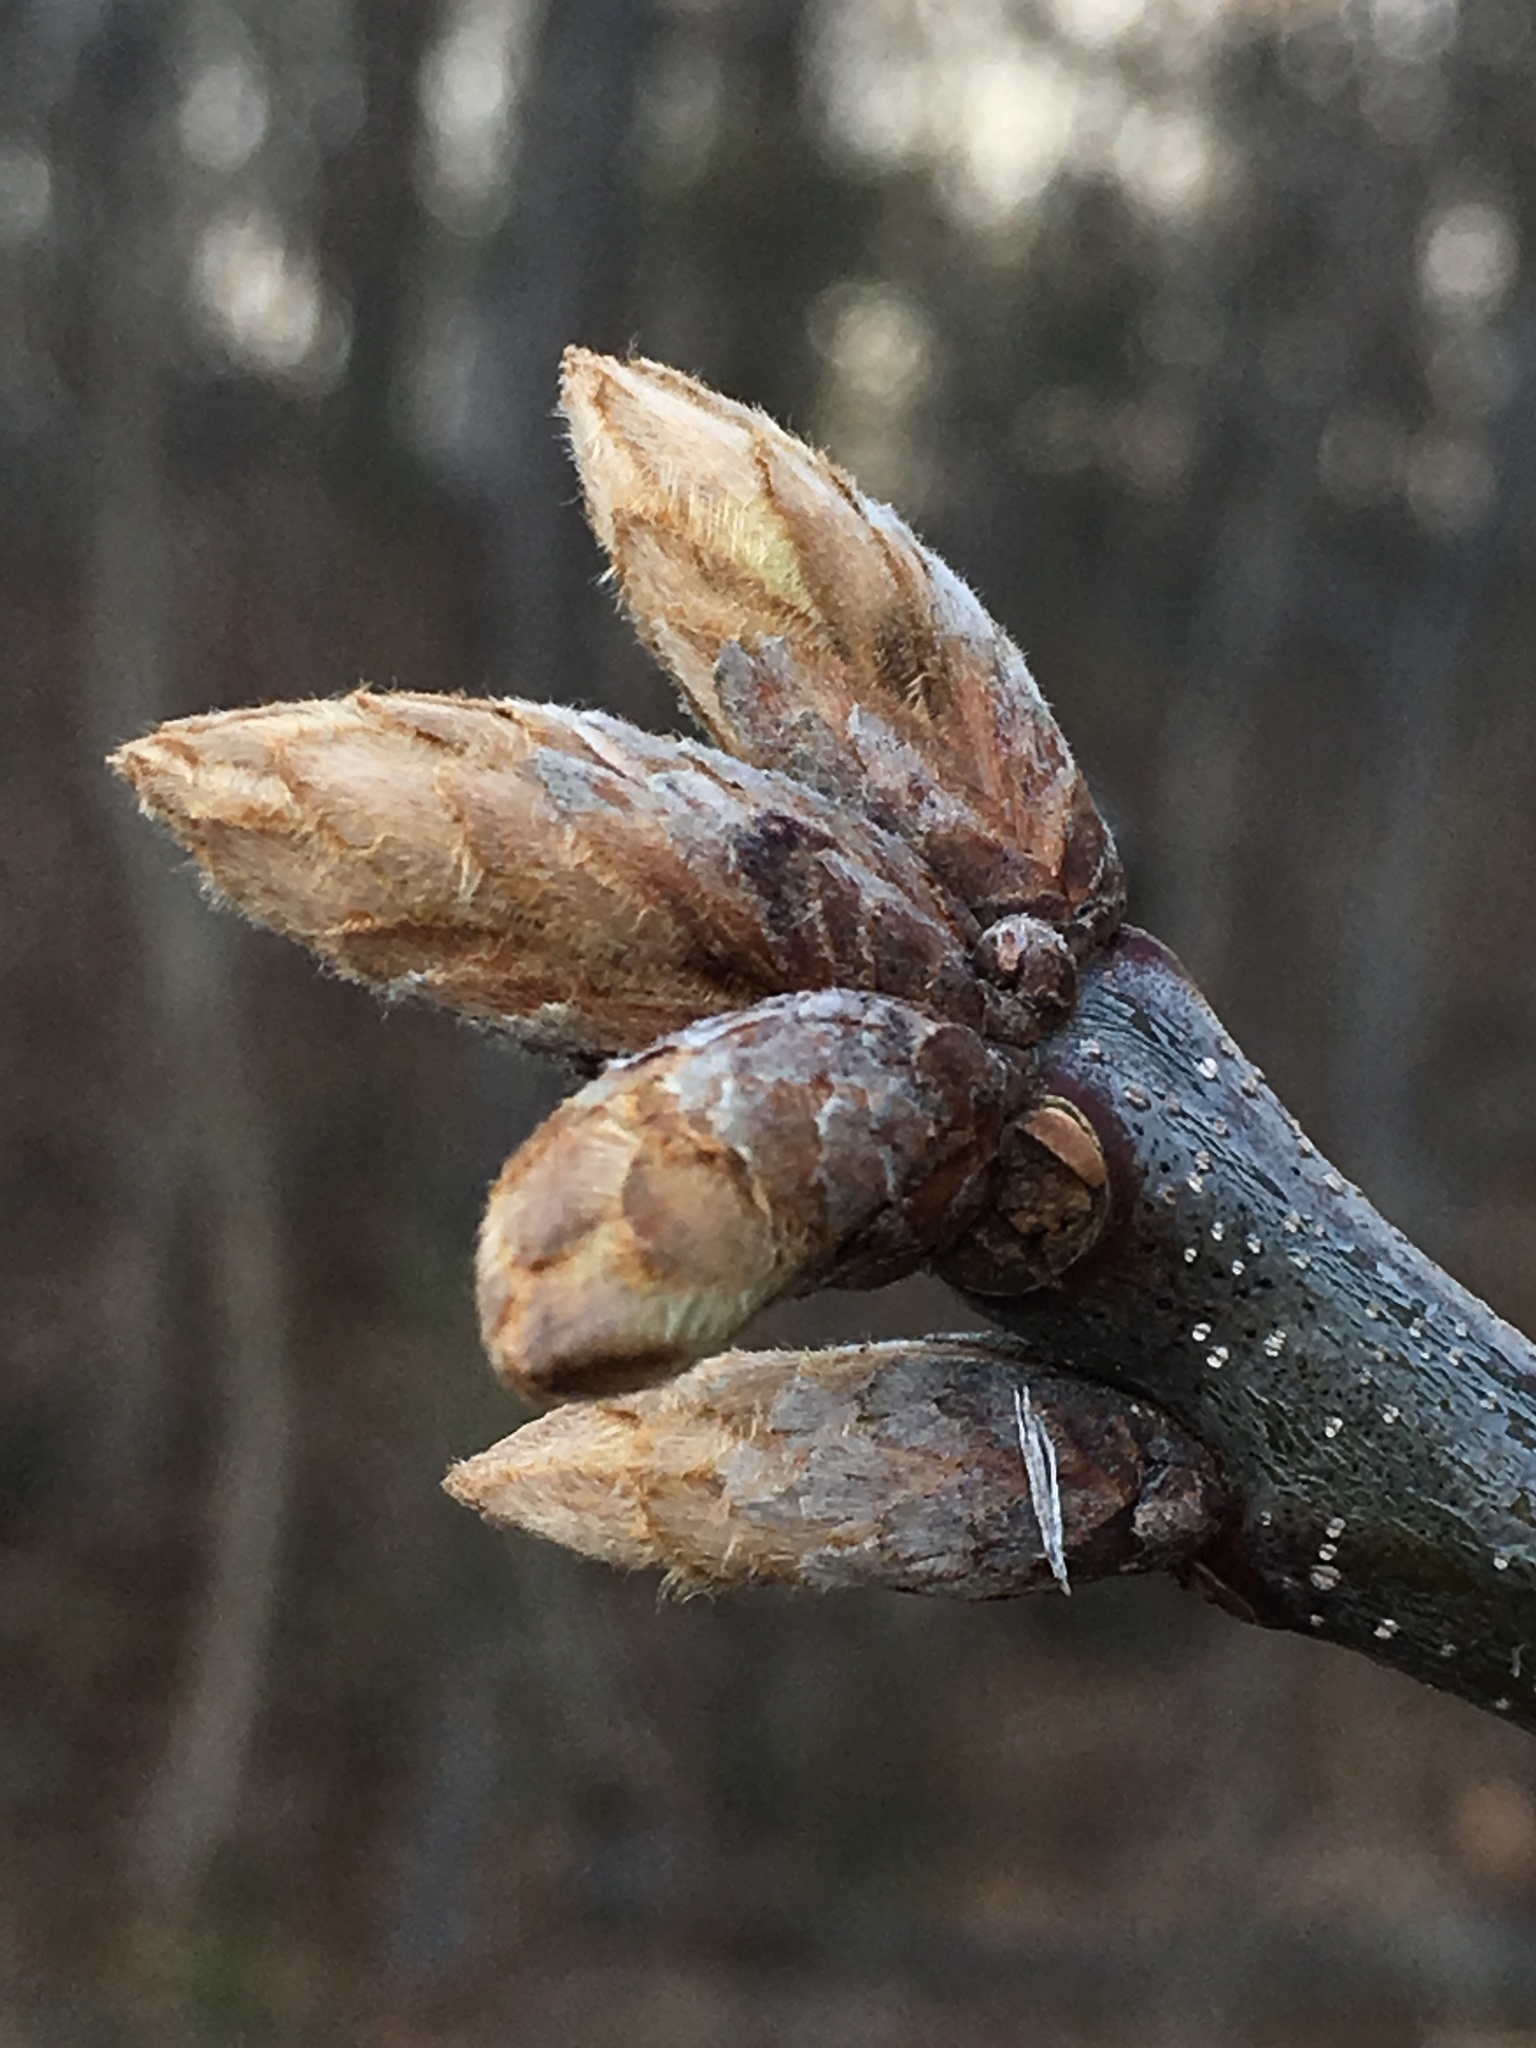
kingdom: Plantae
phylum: Tracheophyta
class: Magnoliopsida
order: Fagales
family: Fagaceae
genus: Quercus
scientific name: Quercus velutina
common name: Black oak
